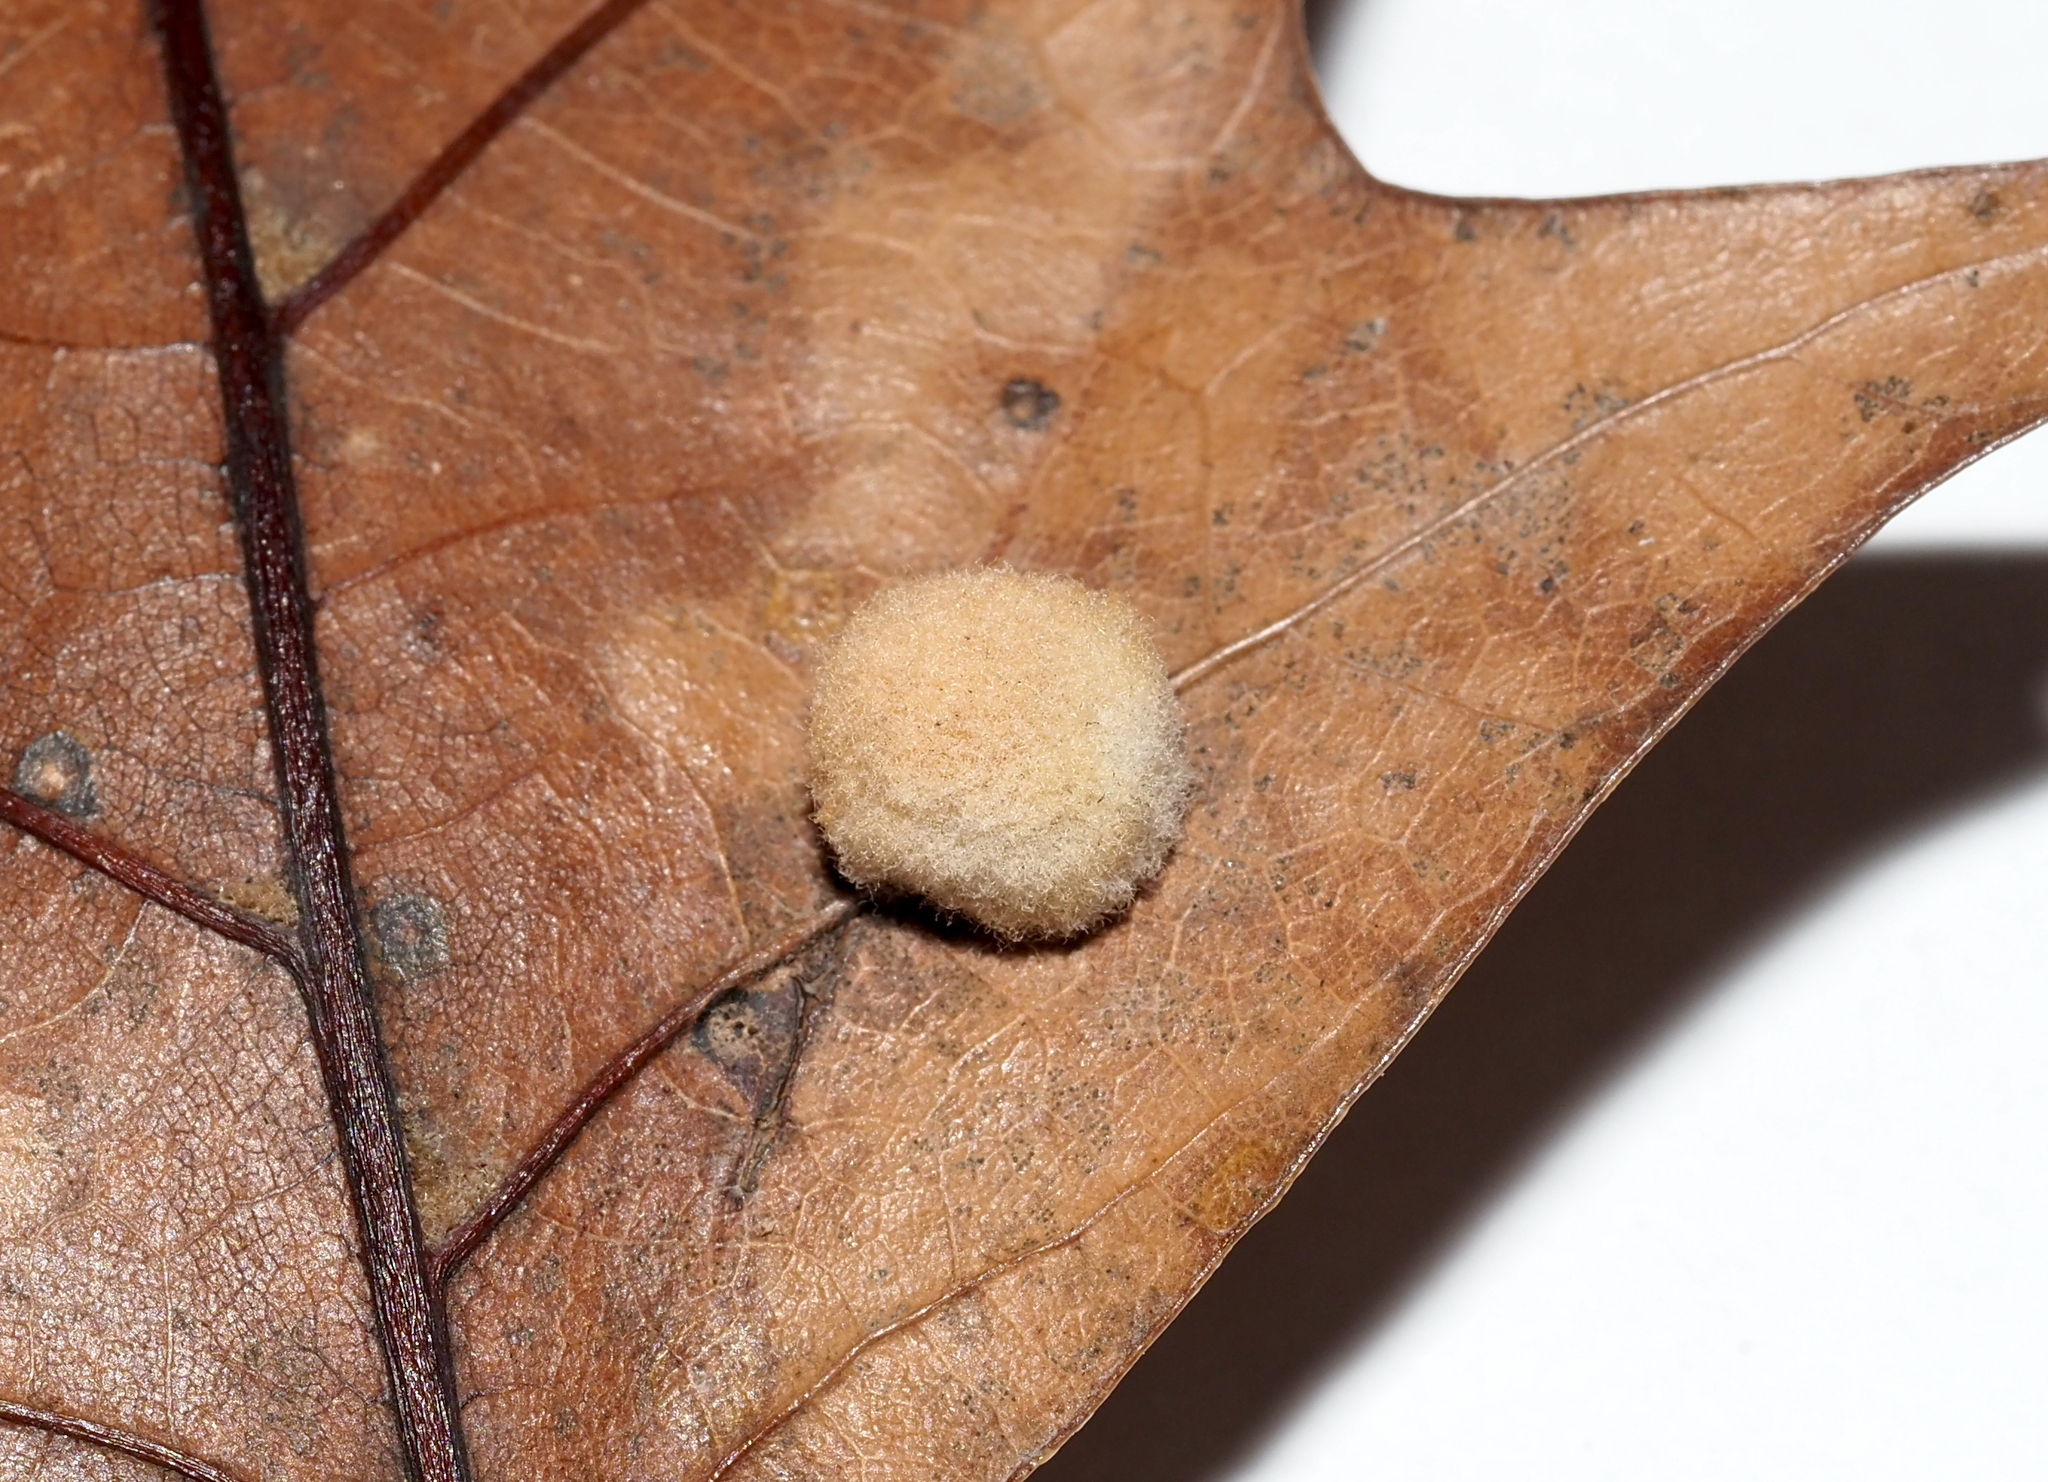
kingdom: Animalia
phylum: Arthropoda
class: Insecta
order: Hymenoptera
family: Cynipidae
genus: Callirhytis
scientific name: Callirhytis
